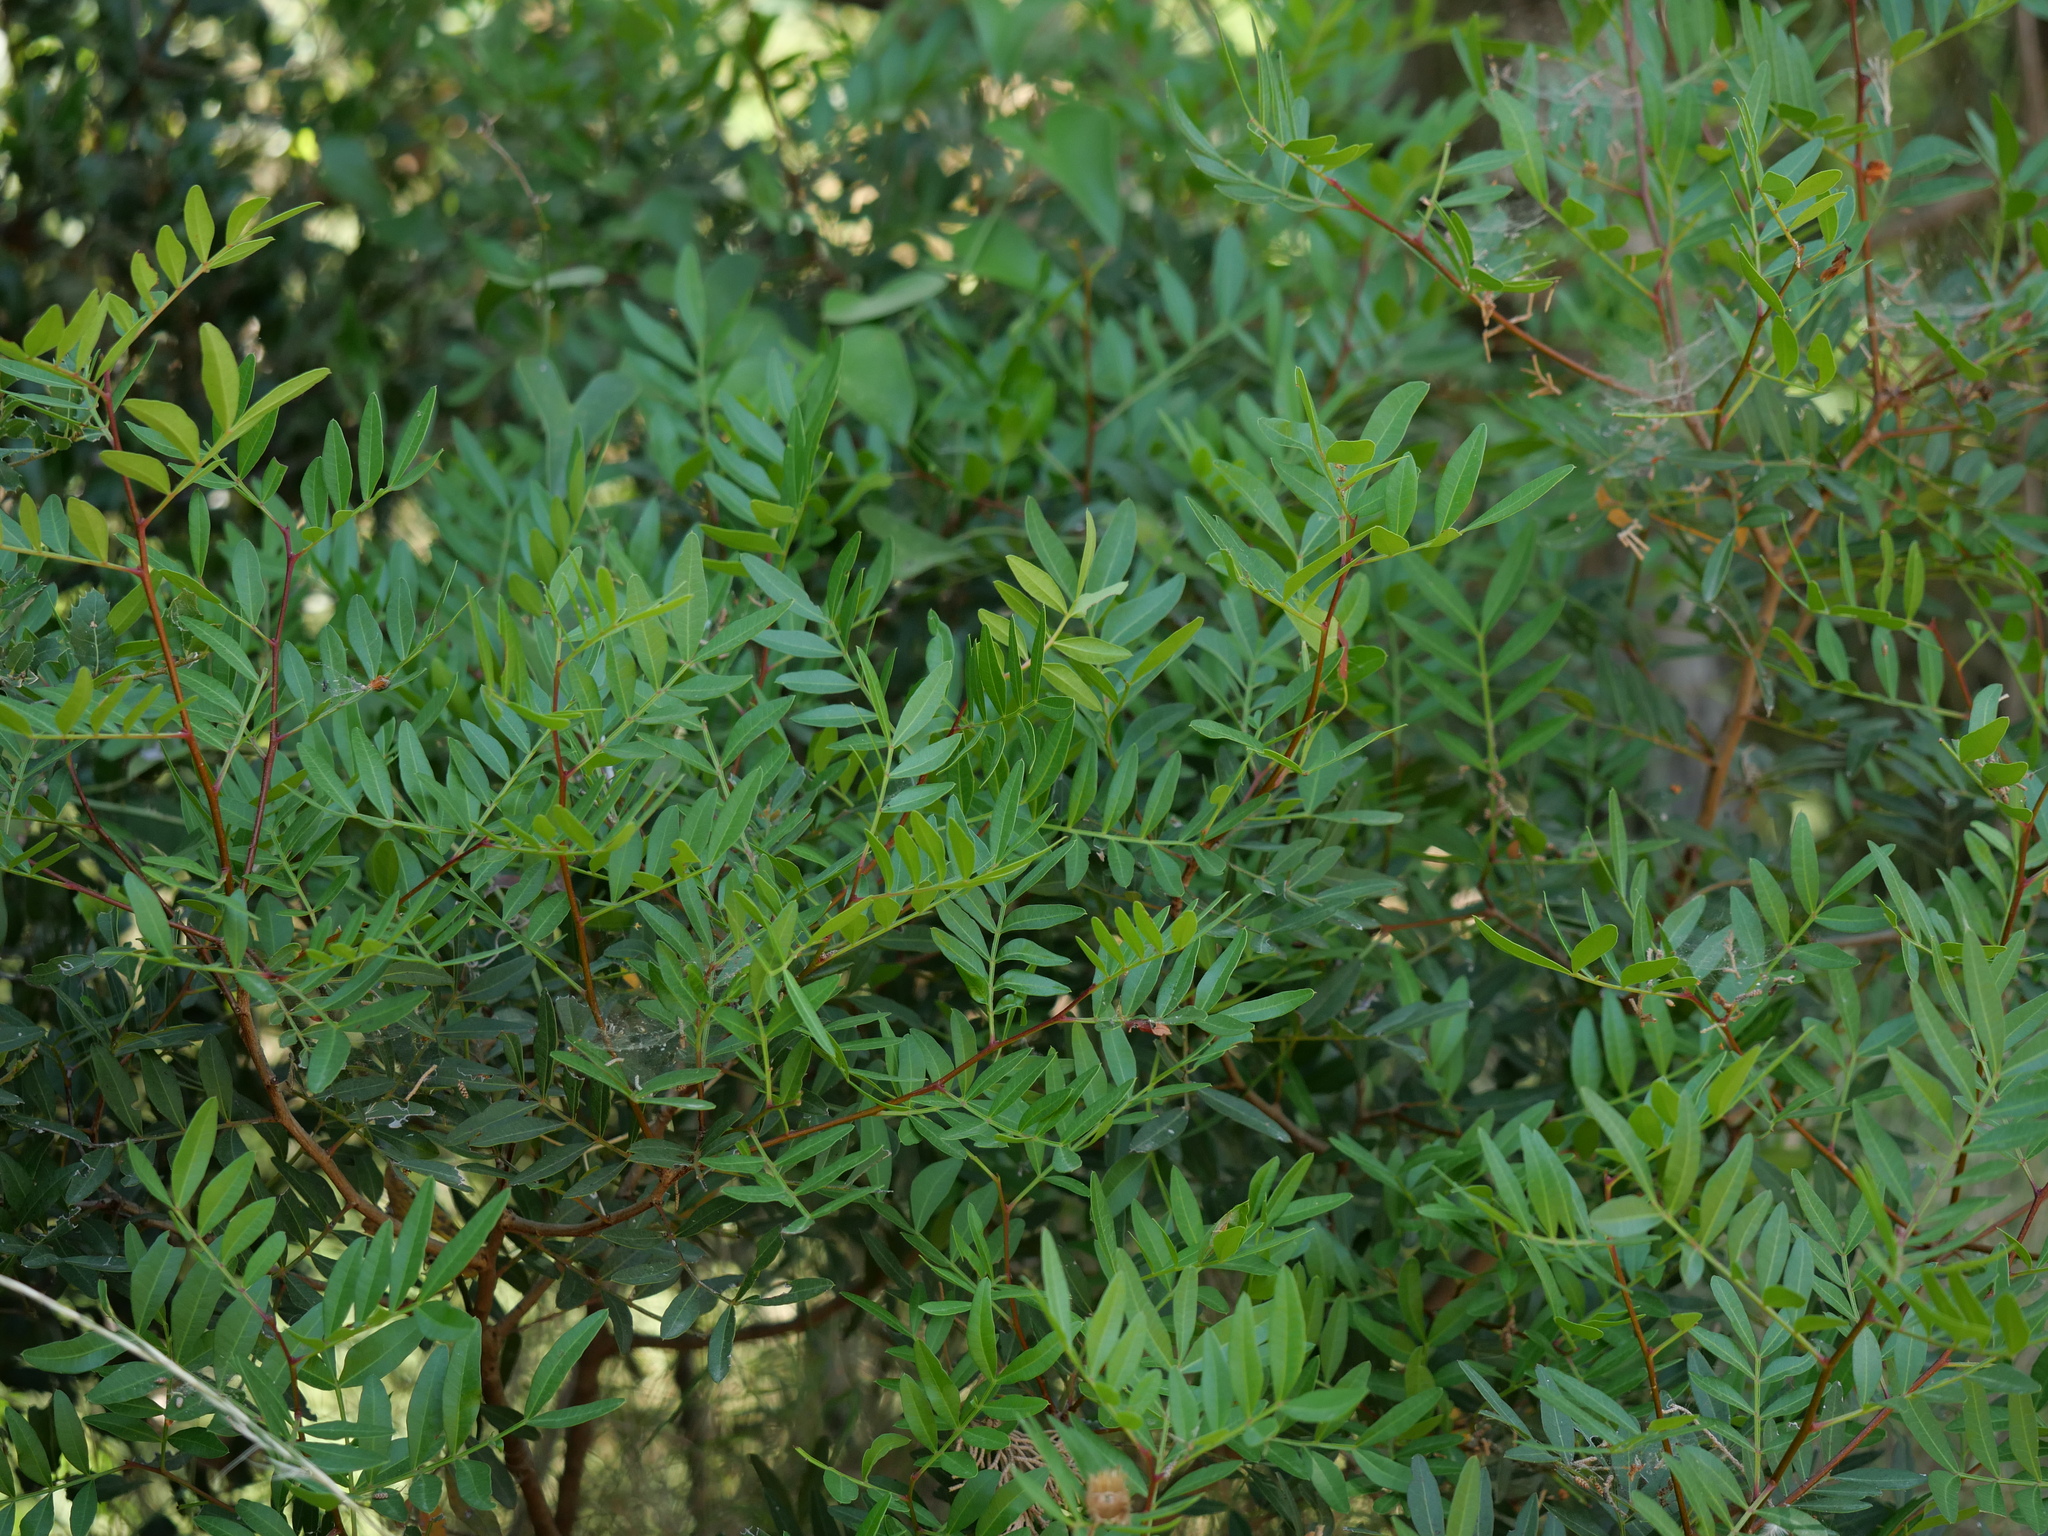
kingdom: Plantae
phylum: Tracheophyta
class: Magnoliopsida
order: Sapindales
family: Anacardiaceae
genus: Pistacia
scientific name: Pistacia lentiscus
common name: Lentisk
